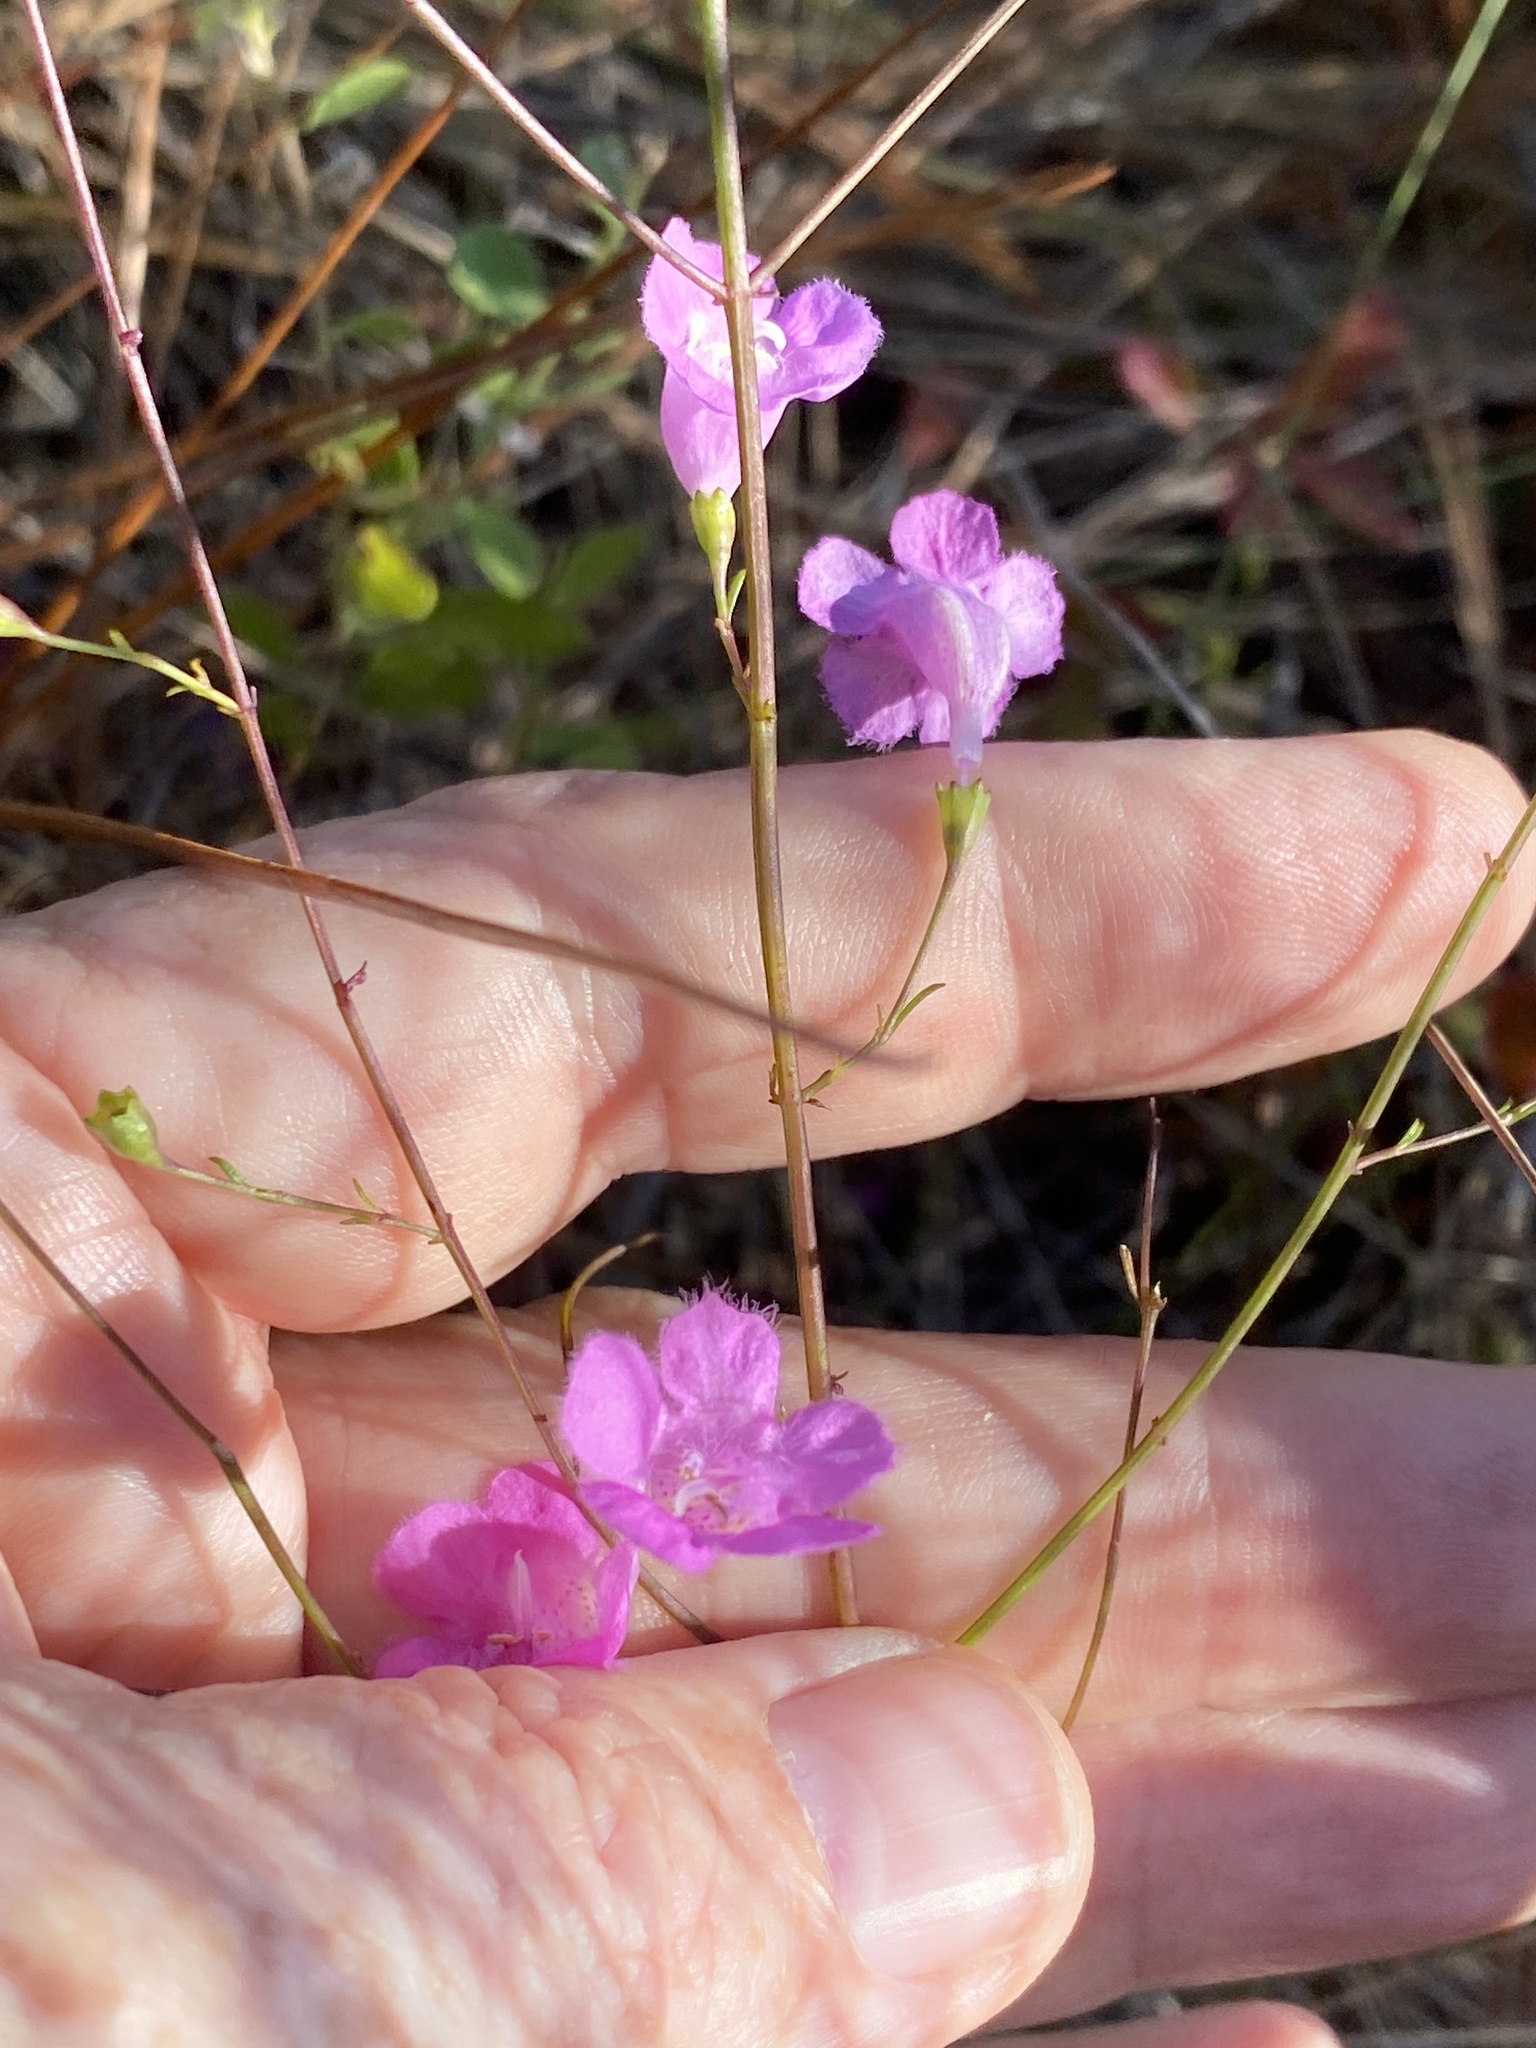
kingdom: Plantae
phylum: Tracheophyta
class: Magnoliopsida
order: Lamiales
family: Orobanchaceae
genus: Agalinis
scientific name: Agalinis aphylla
